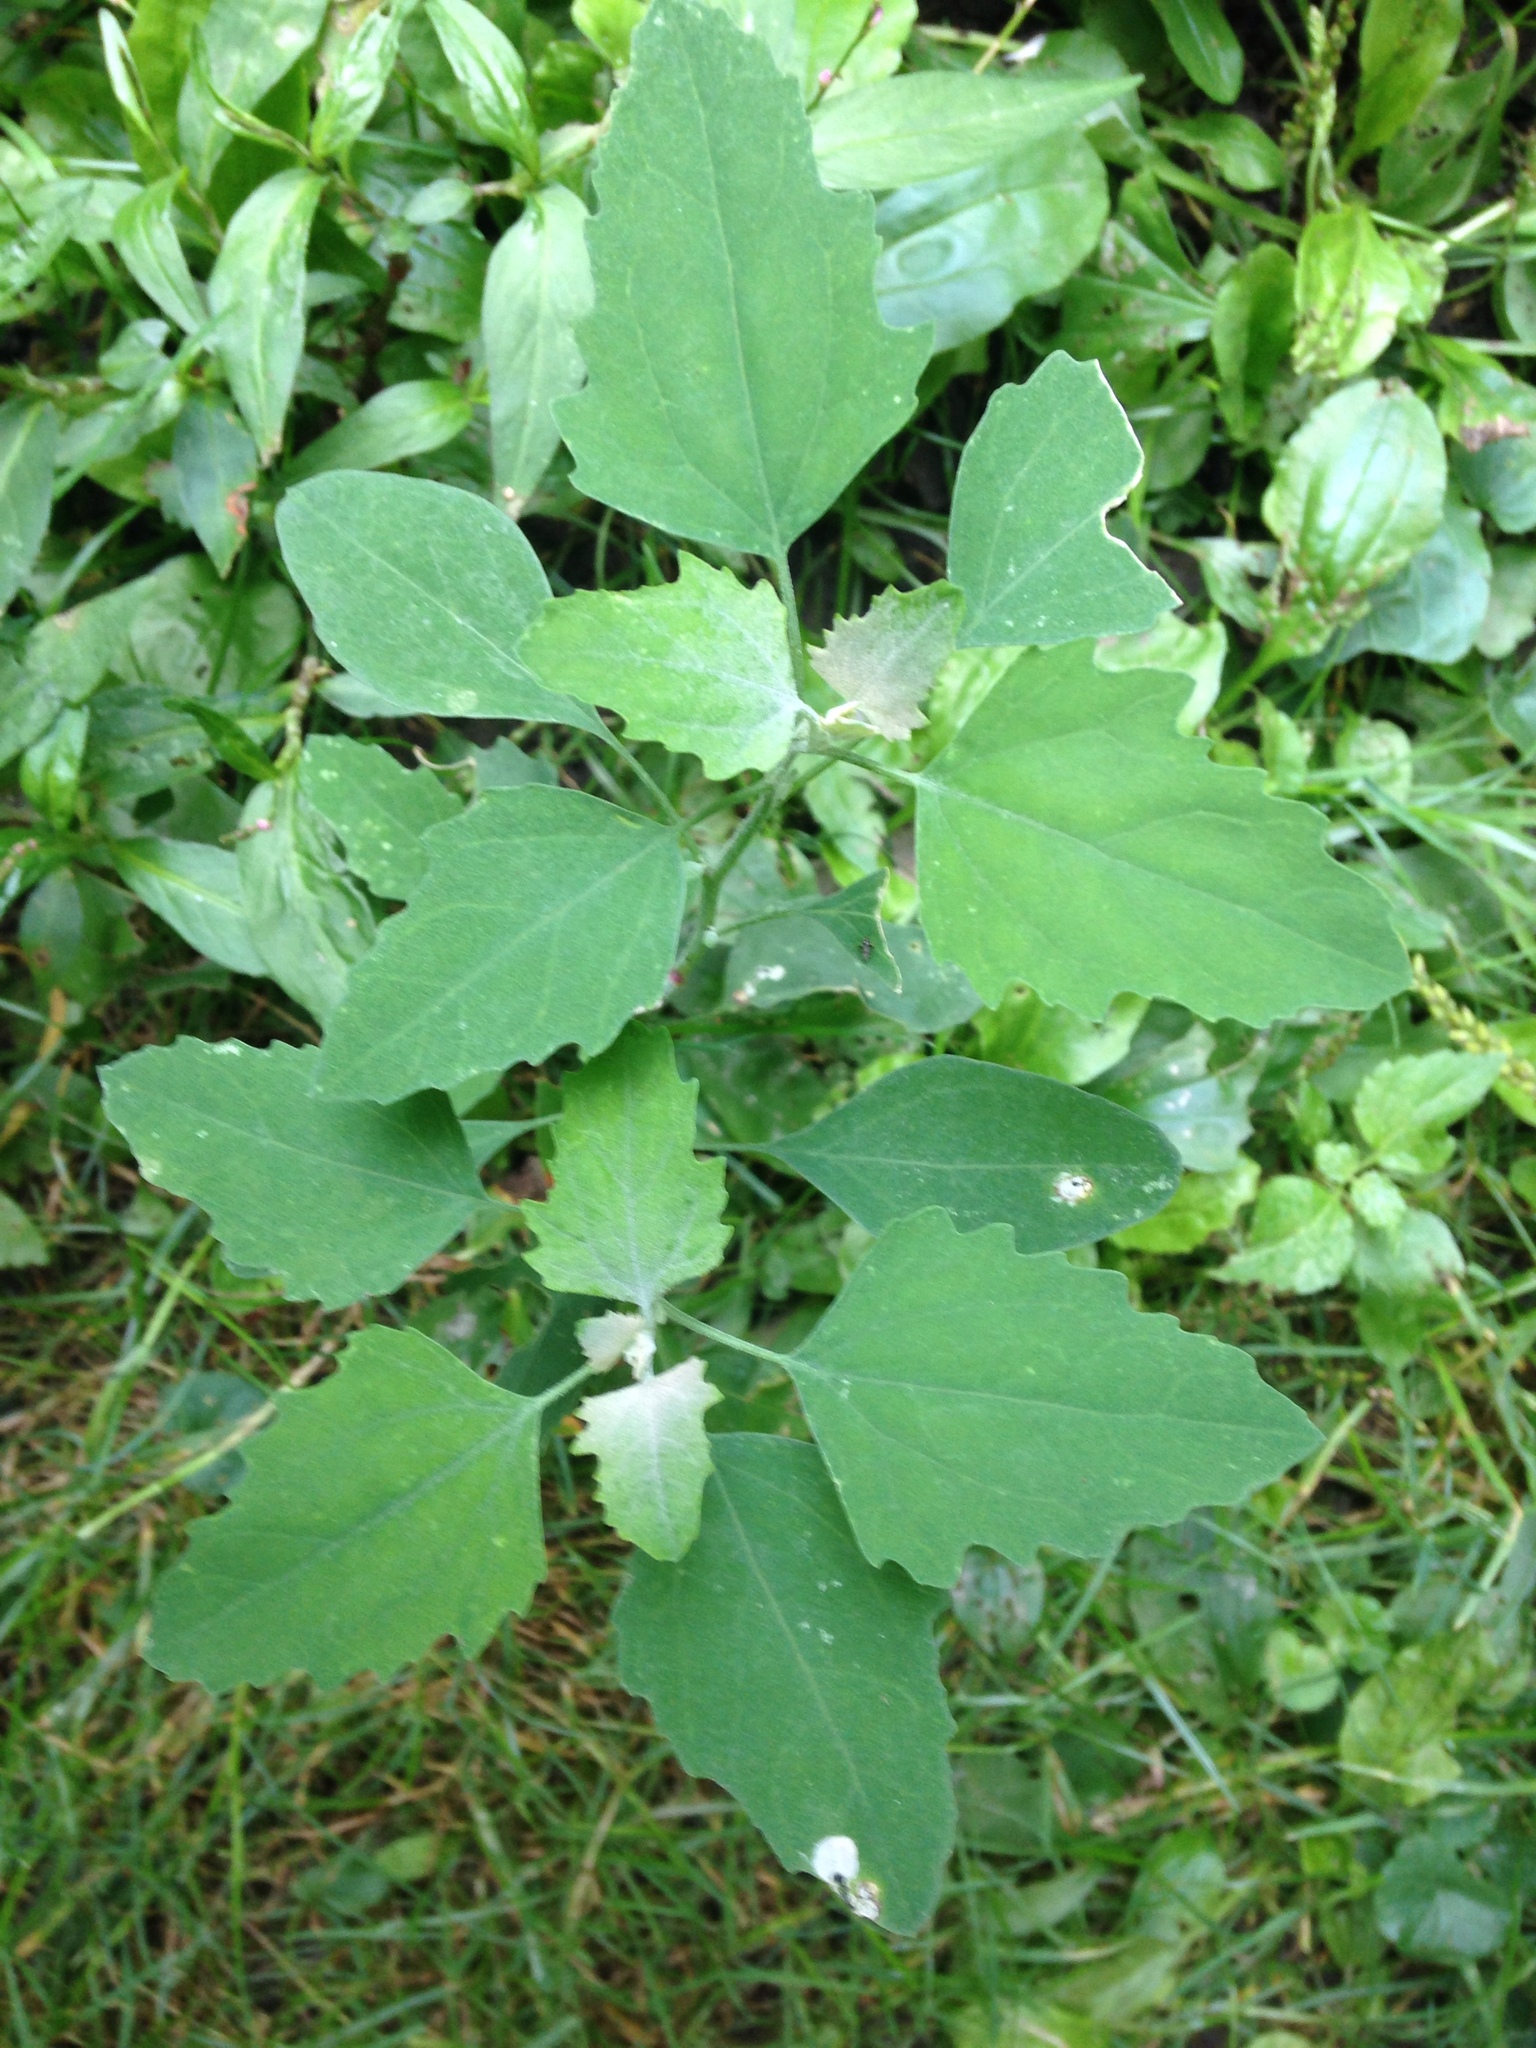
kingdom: Plantae
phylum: Tracheophyta
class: Magnoliopsida
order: Caryophyllales
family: Amaranthaceae
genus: Chenopodium
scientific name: Chenopodium album
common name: Fat-hen
